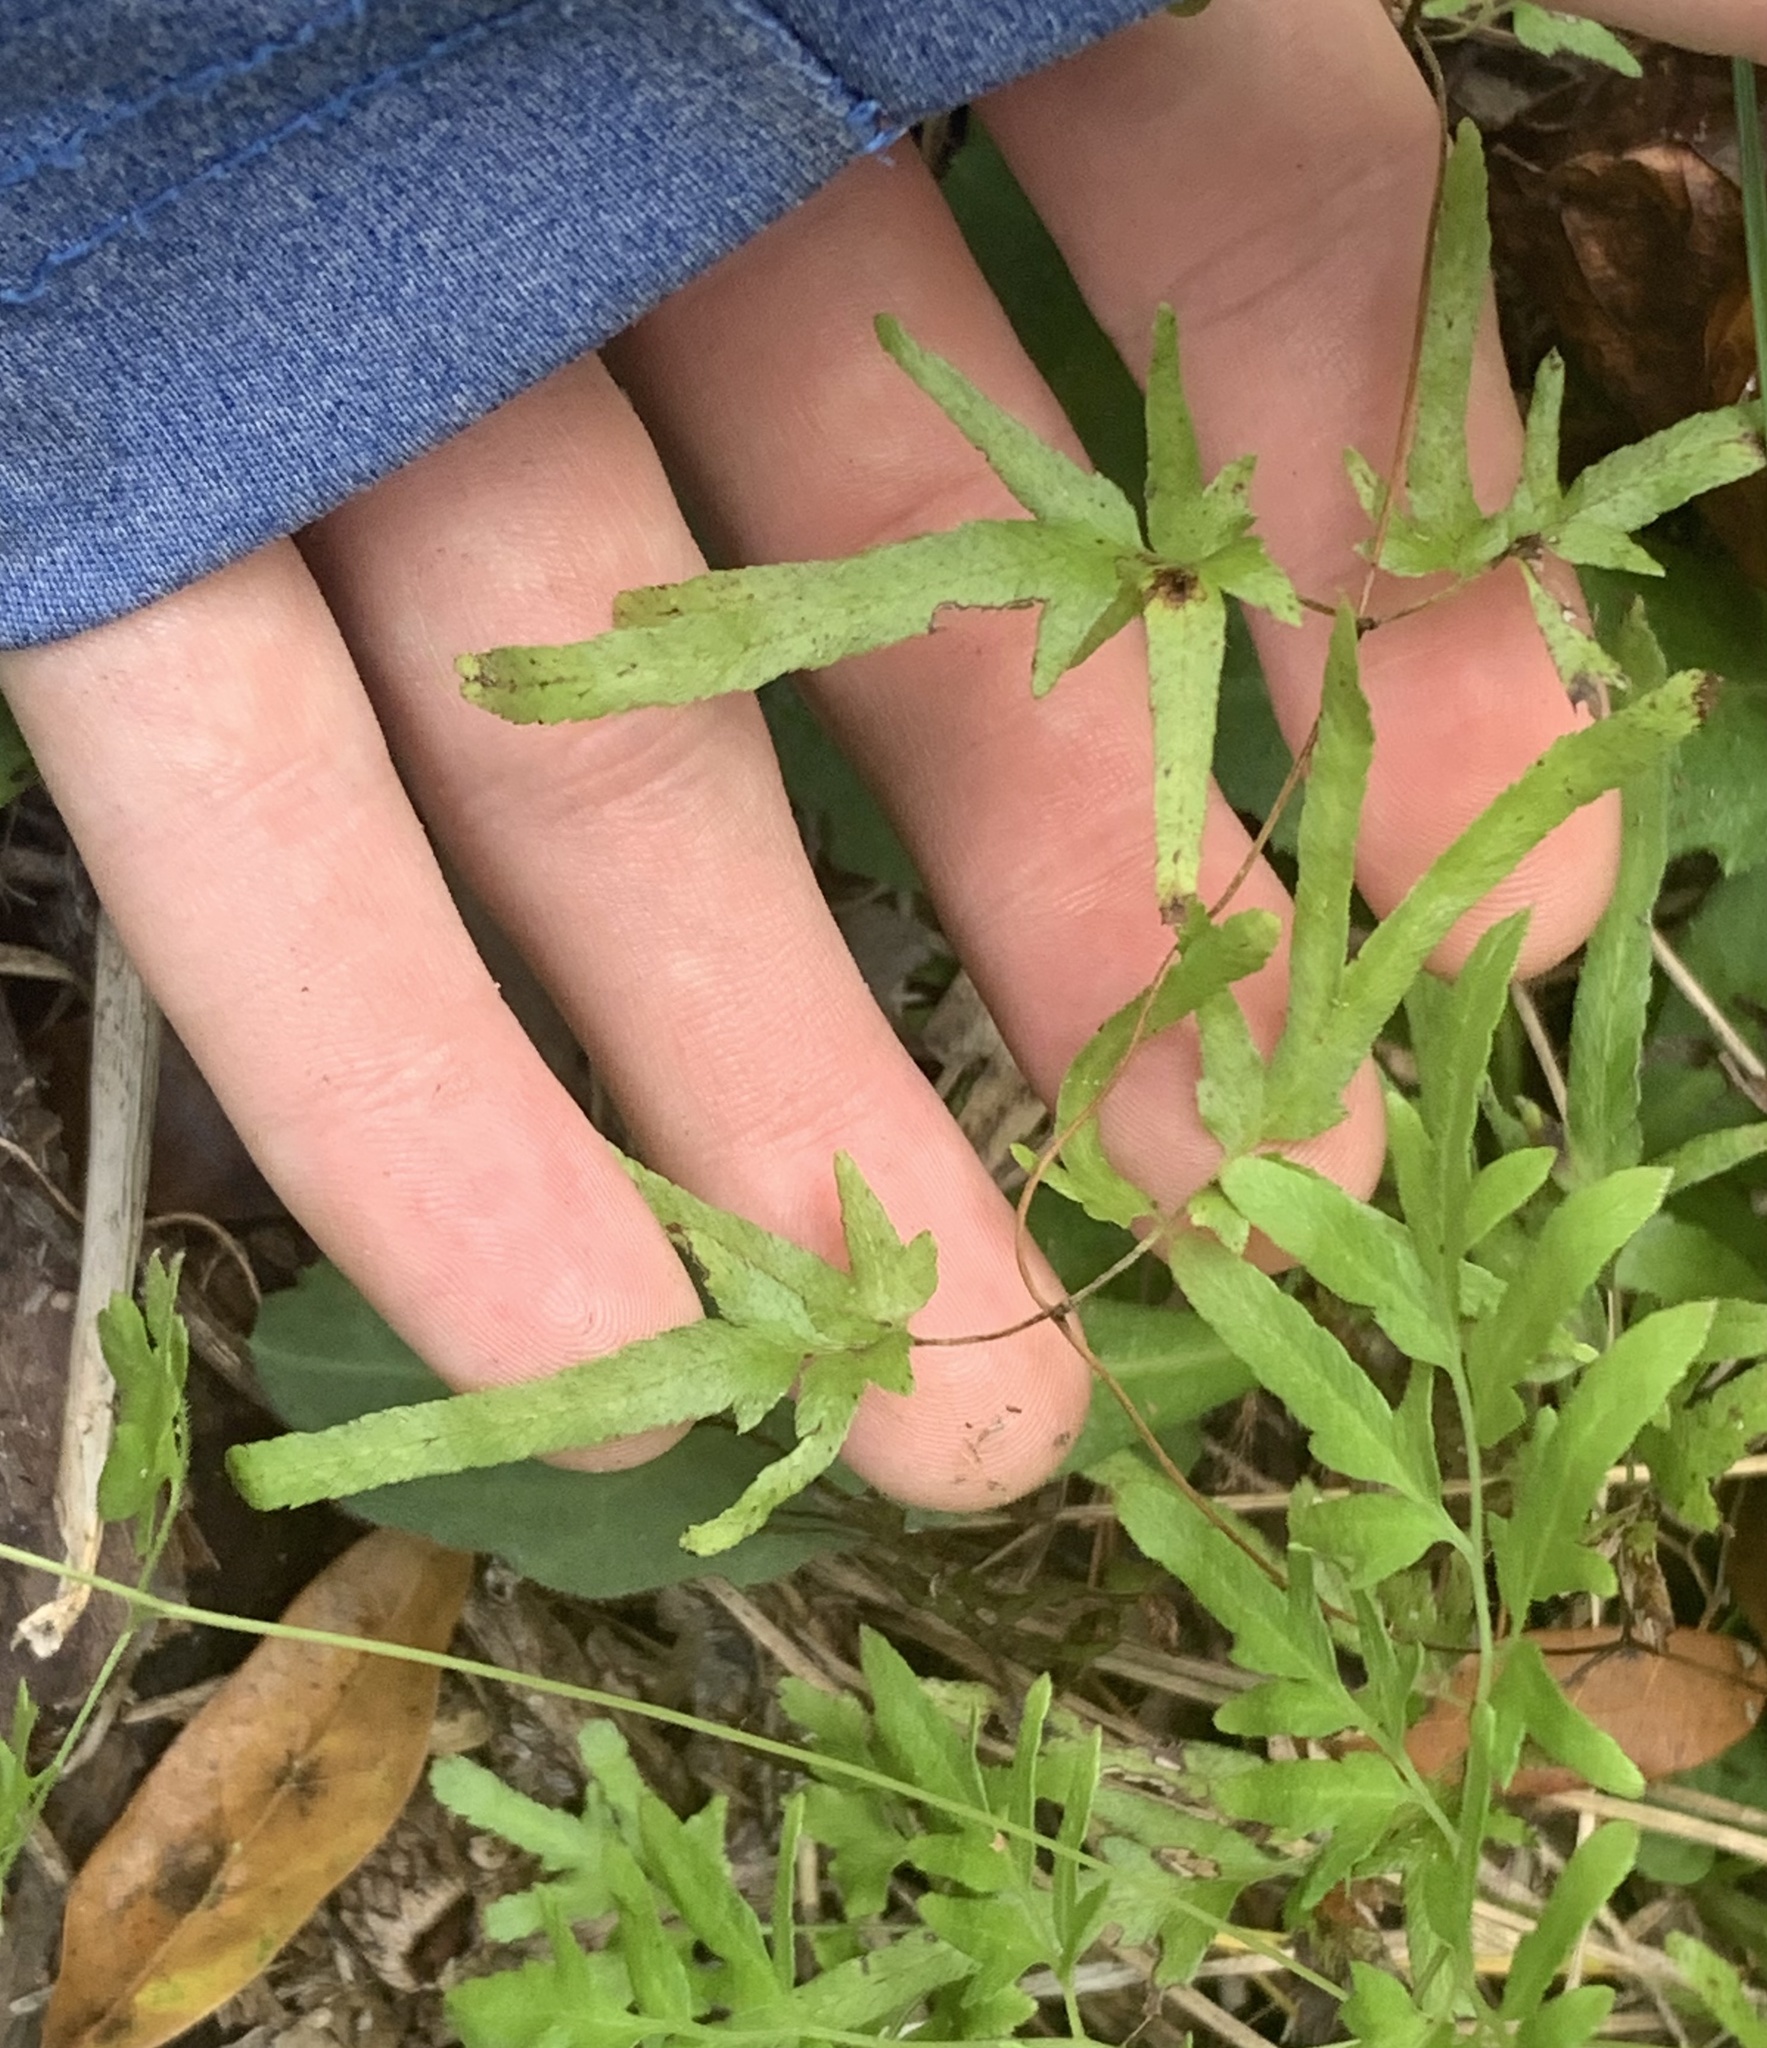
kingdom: Plantae
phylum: Tracheophyta
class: Polypodiopsida
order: Schizaeales
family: Lygodiaceae
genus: Lygodium
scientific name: Lygodium japonicum
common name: Japanese climbing fern
